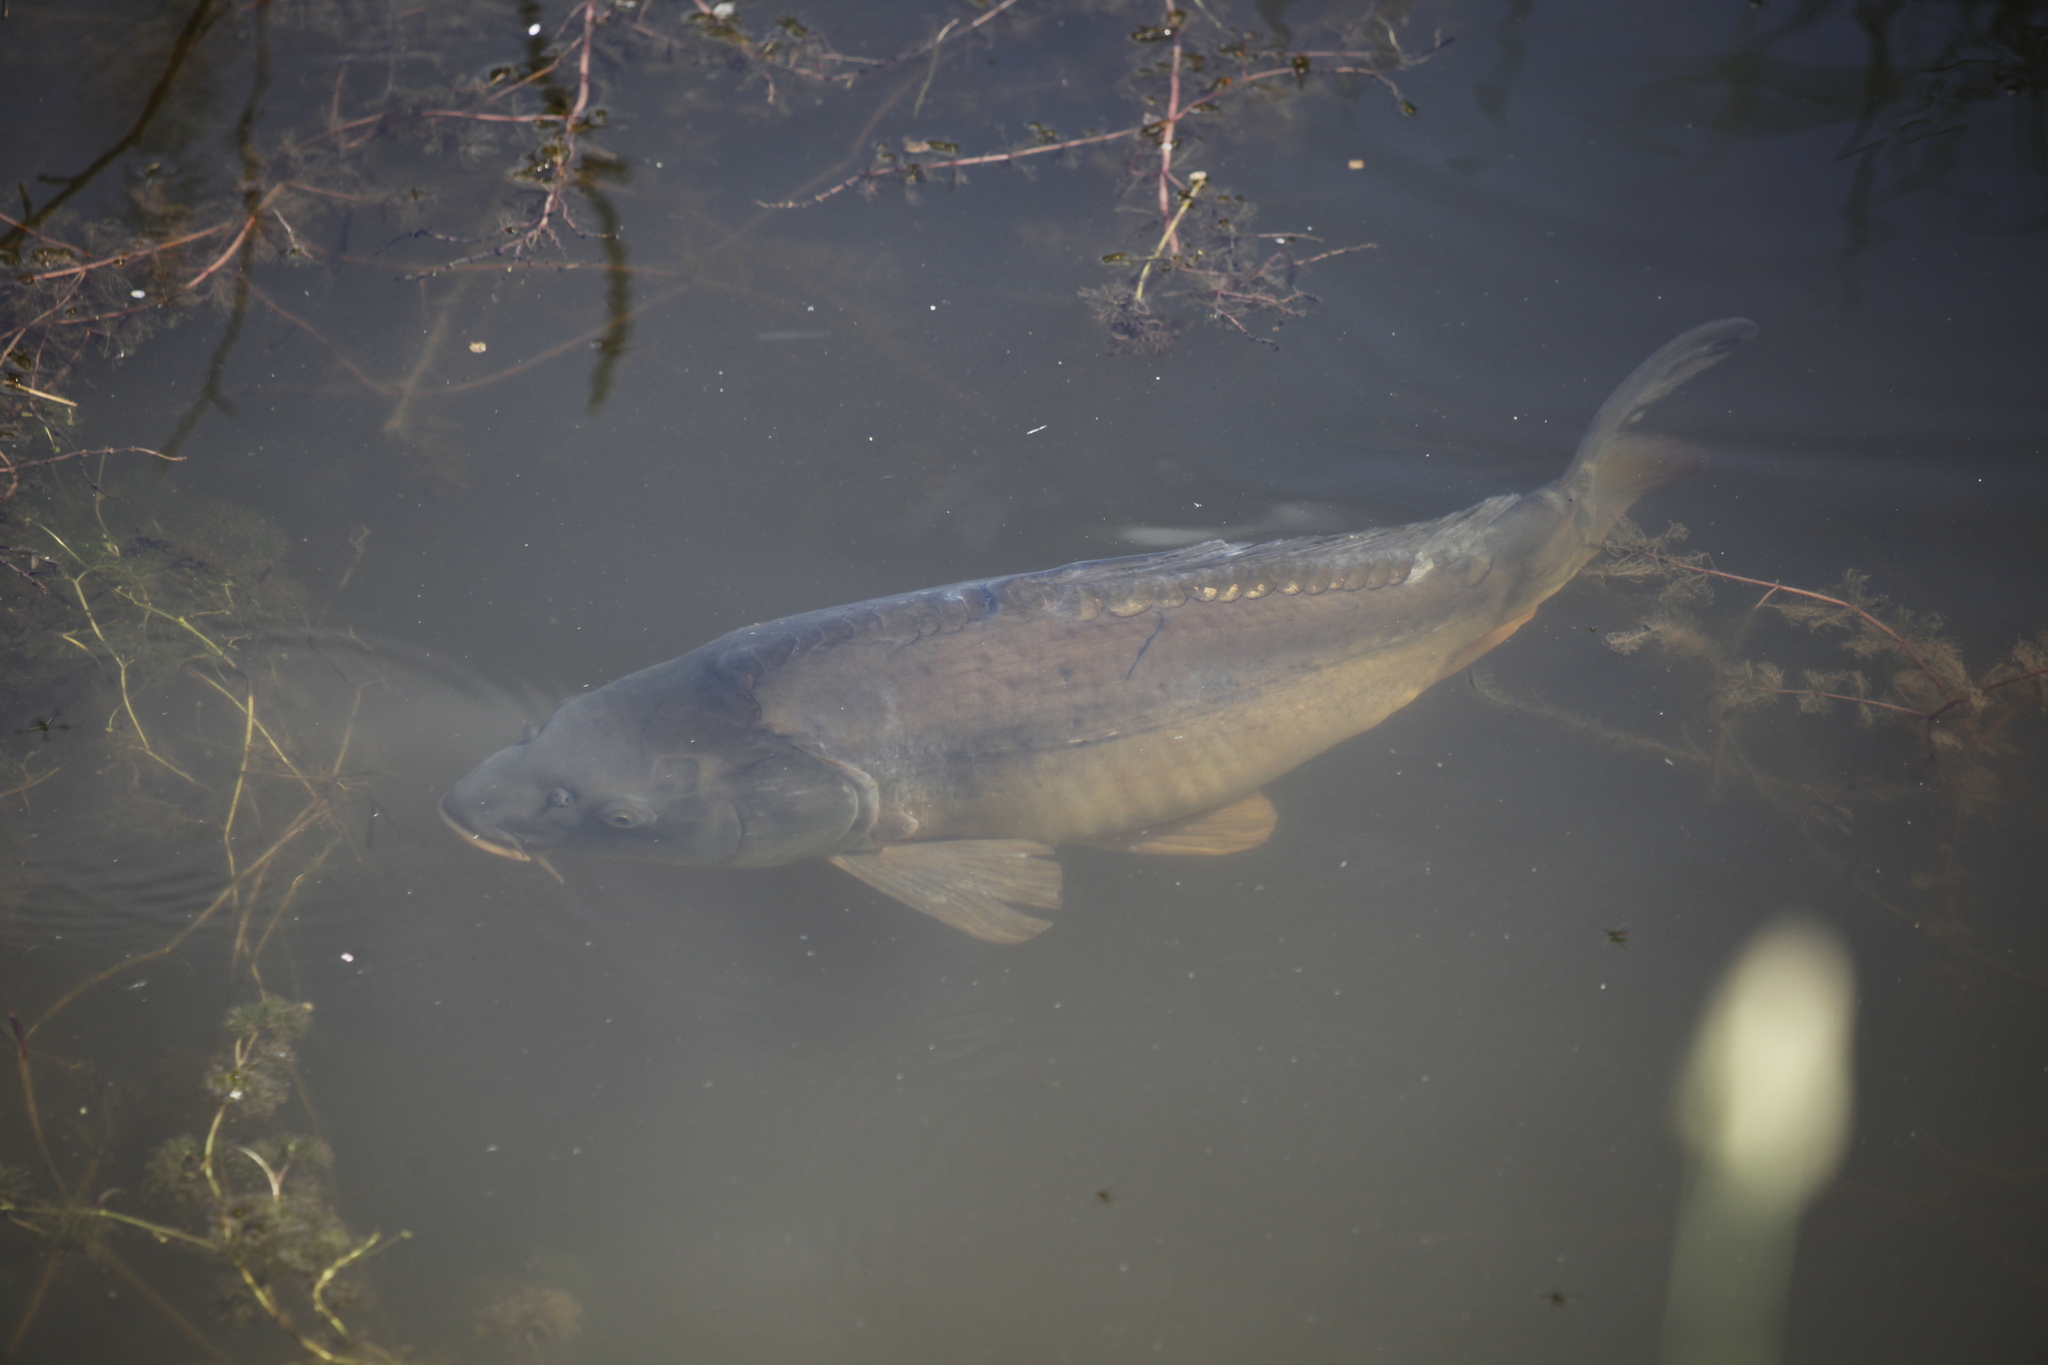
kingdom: Animalia
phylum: Chordata
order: Cypriniformes
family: Cyprinidae
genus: Cyprinus
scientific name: Cyprinus carpio
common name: Common carp
